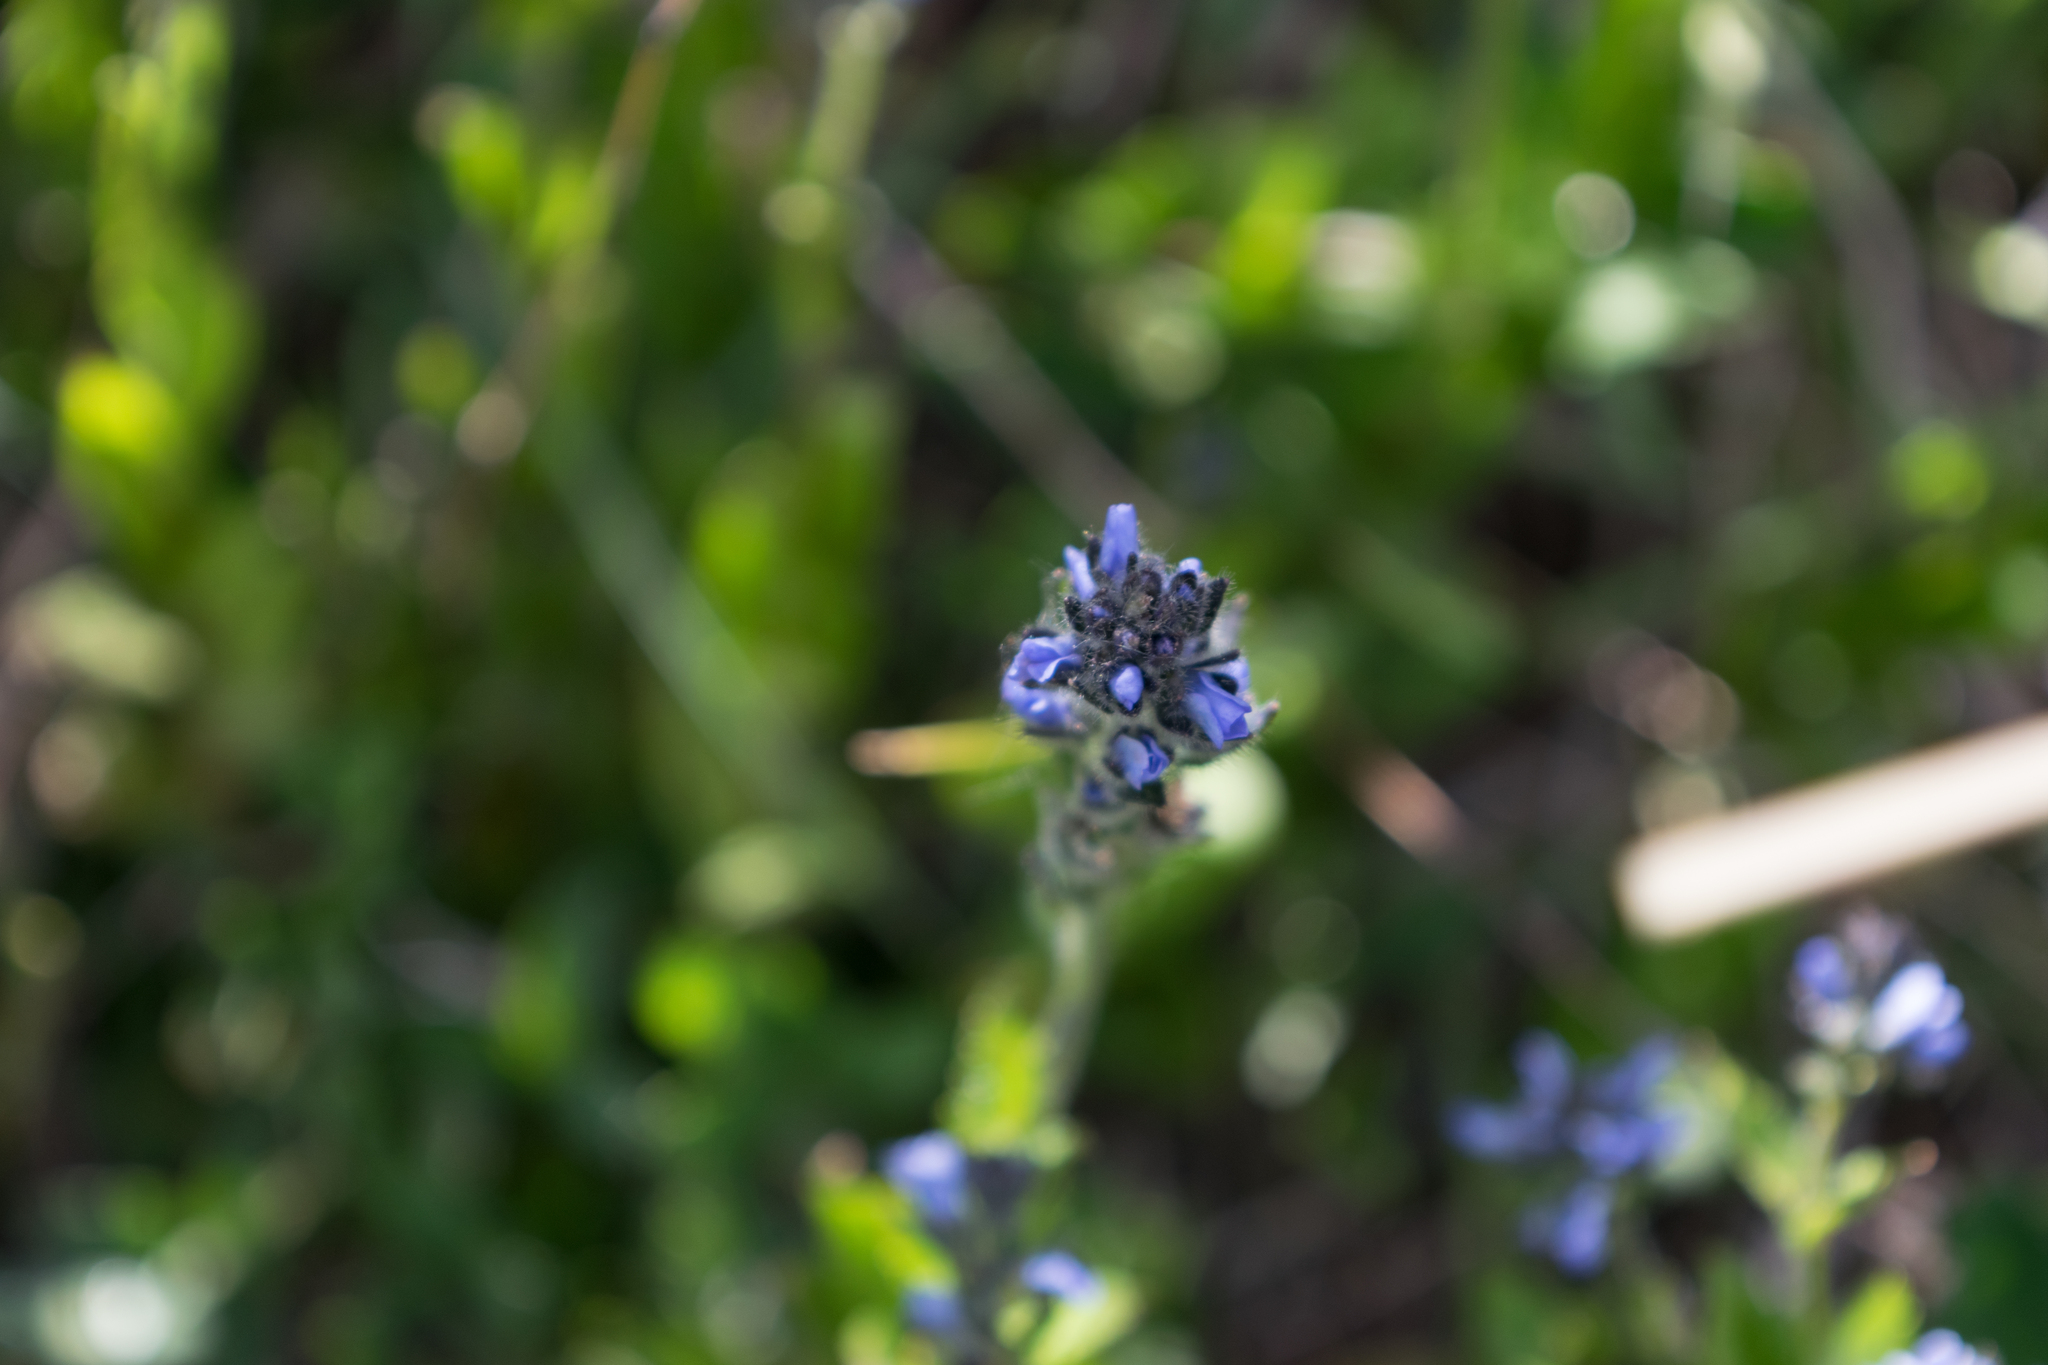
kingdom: Plantae
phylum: Tracheophyta
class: Magnoliopsida
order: Lamiales
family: Plantaginaceae
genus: Veronica
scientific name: Veronica wormskjoldii
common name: American alpine speedwell
